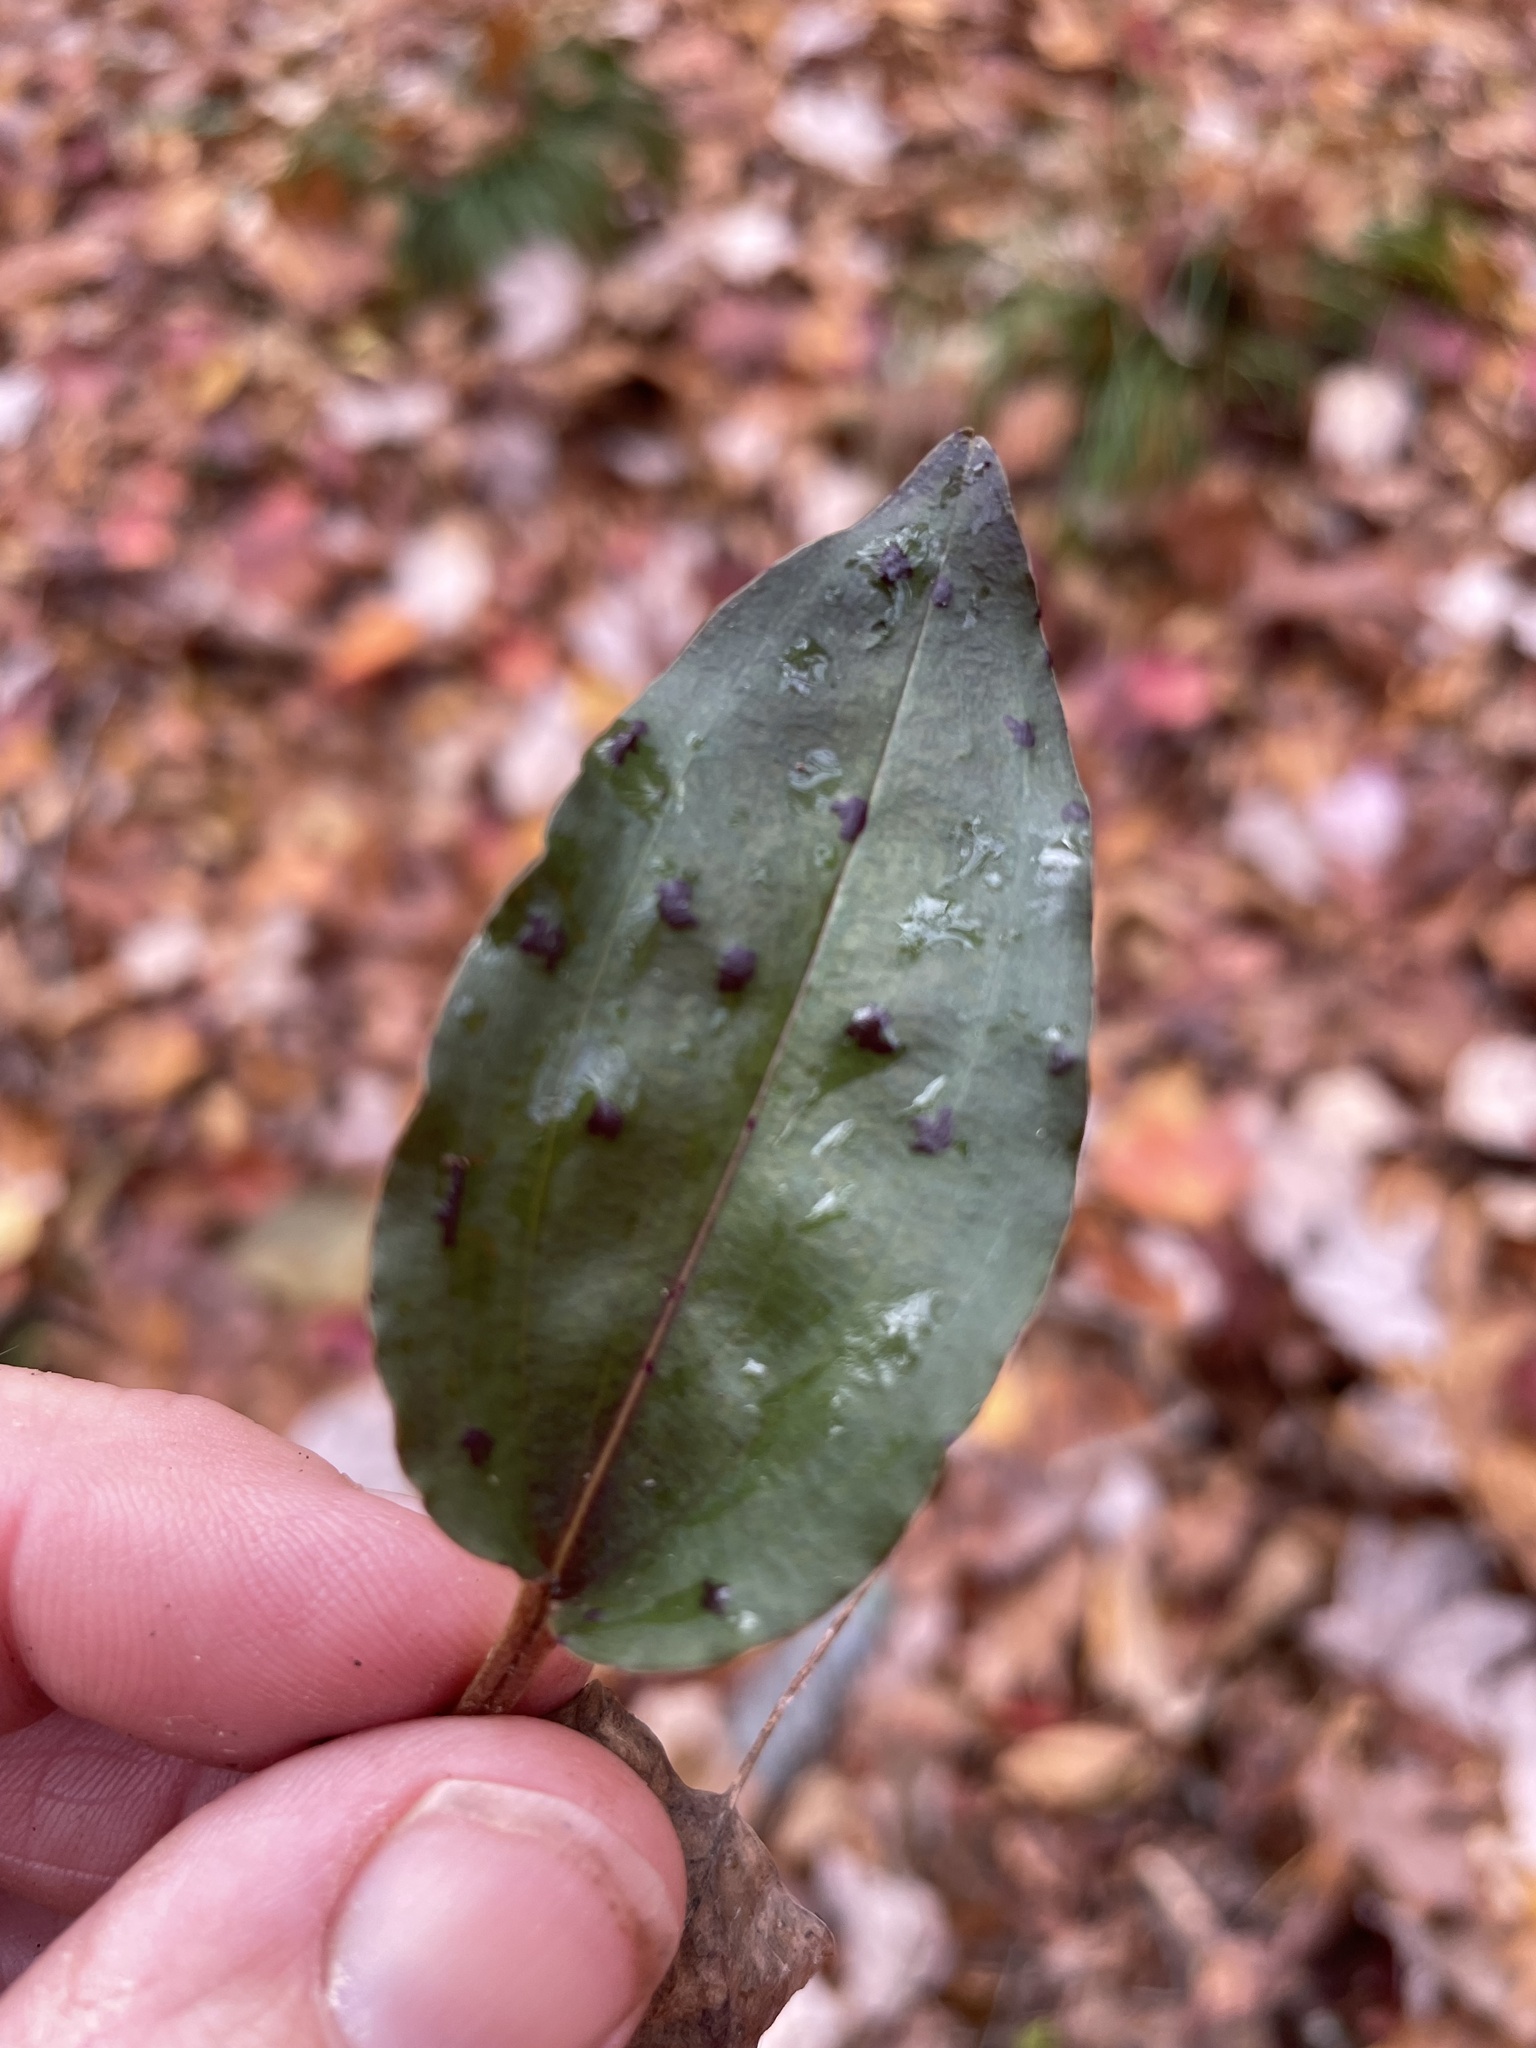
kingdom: Plantae
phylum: Tracheophyta
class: Liliopsida
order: Asparagales
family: Orchidaceae
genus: Tipularia
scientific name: Tipularia discolor
